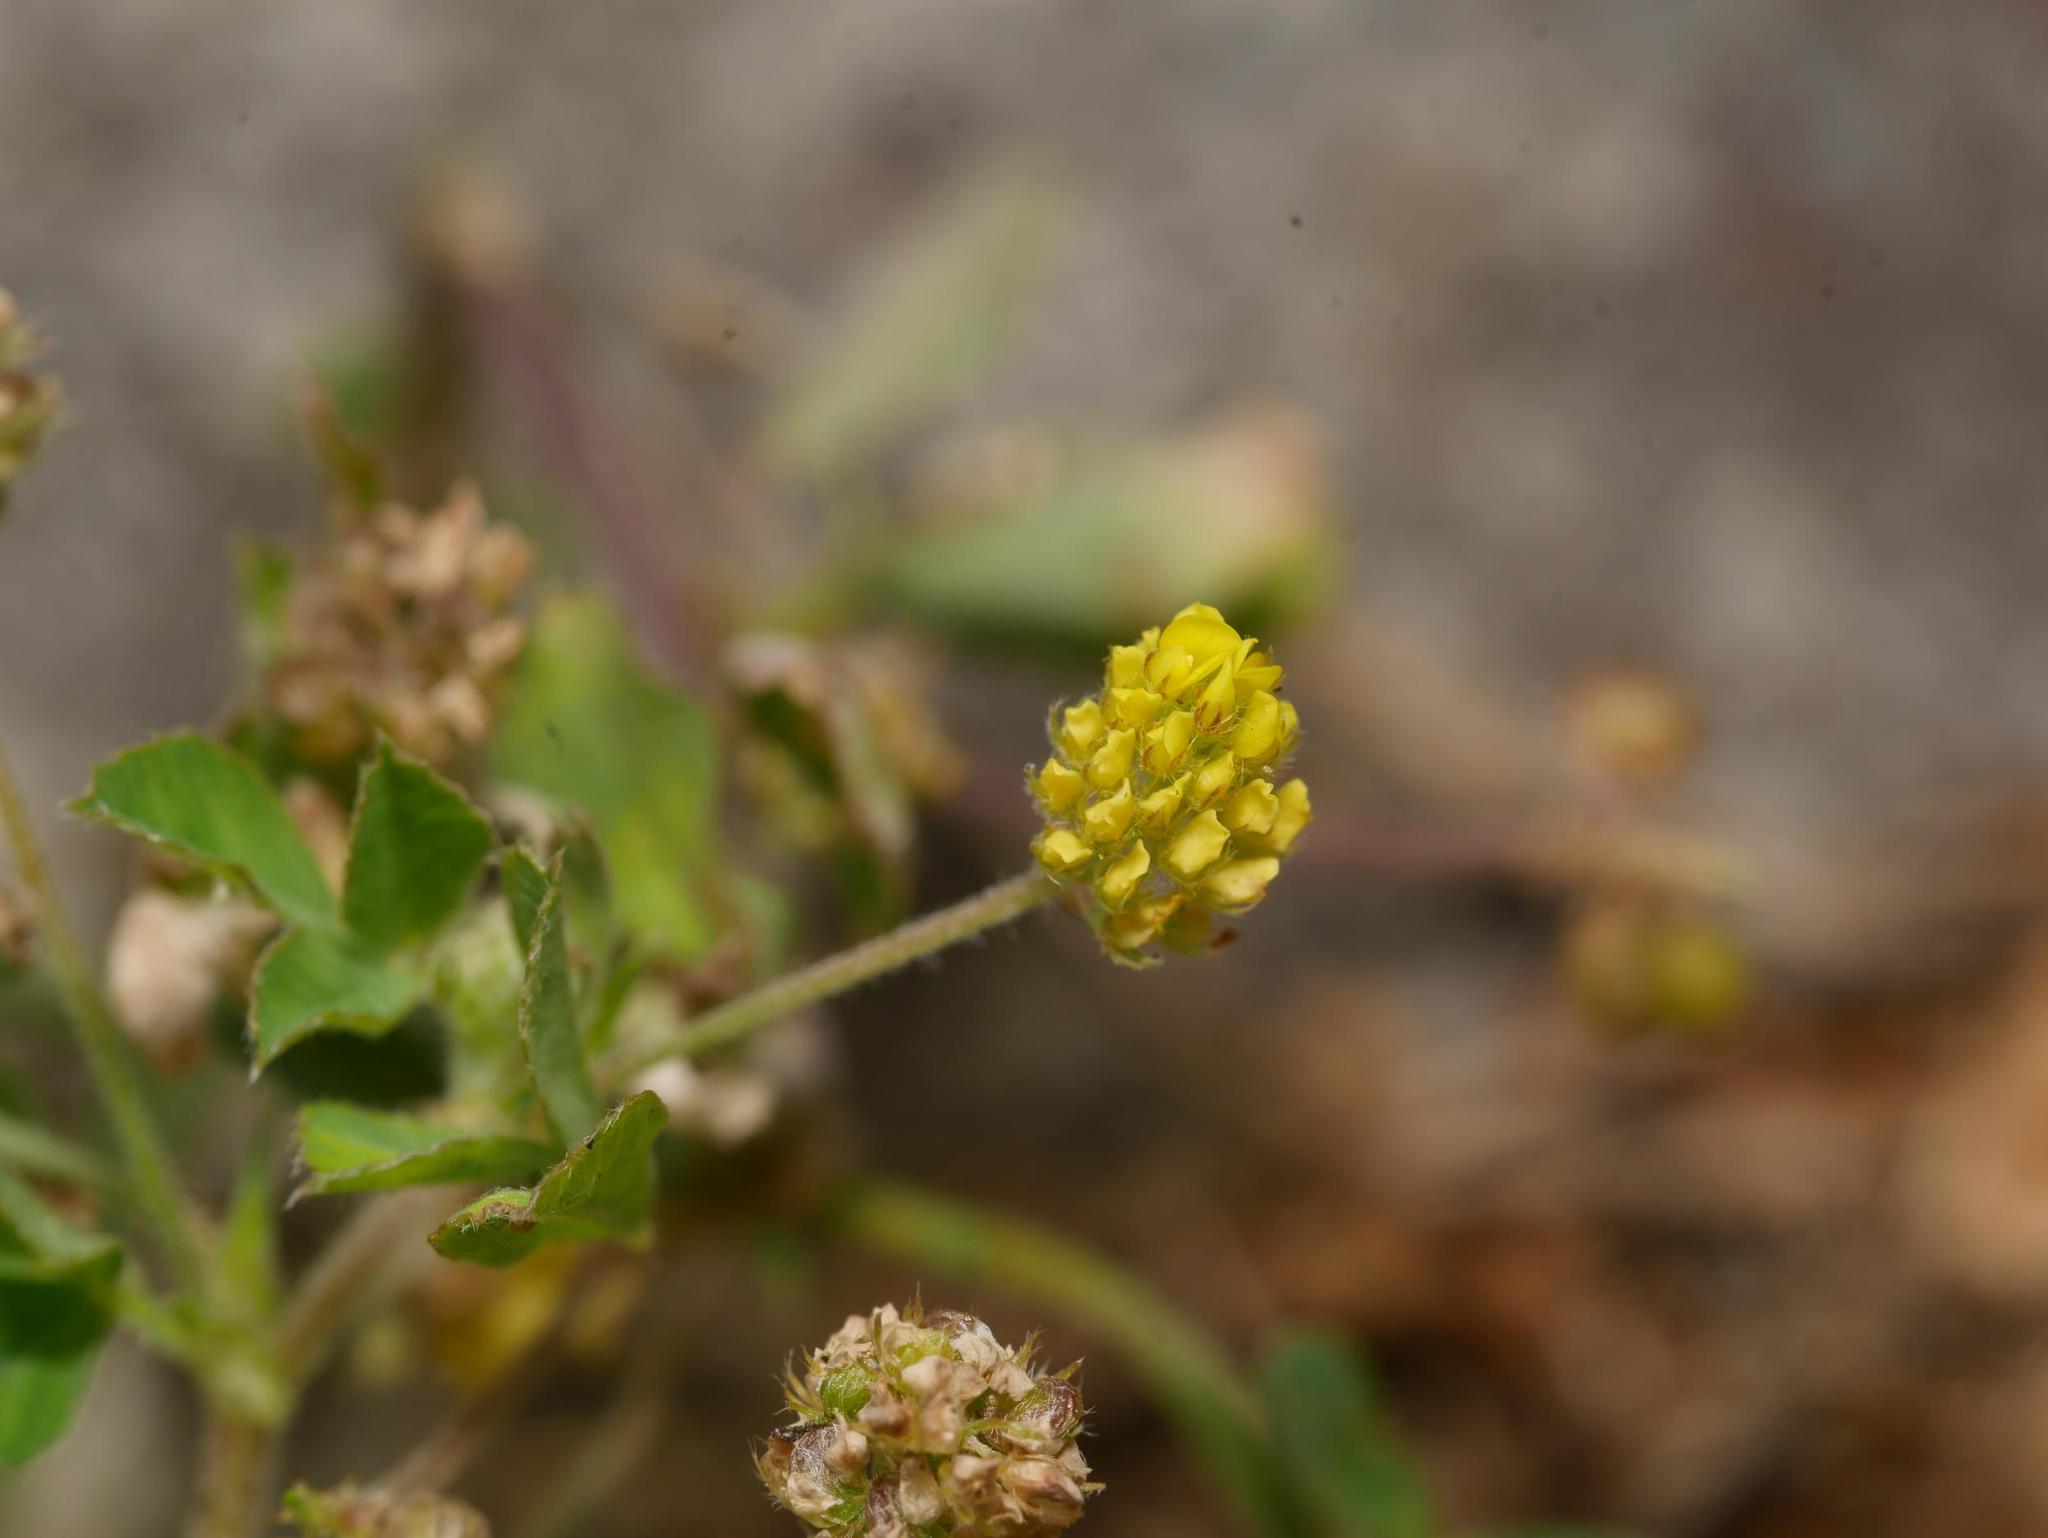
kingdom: Plantae
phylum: Tracheophyta
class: Magnoliopsida
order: Fabales
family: Fabaceae
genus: Medicago
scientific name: Medicago lupulina
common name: Black medick
